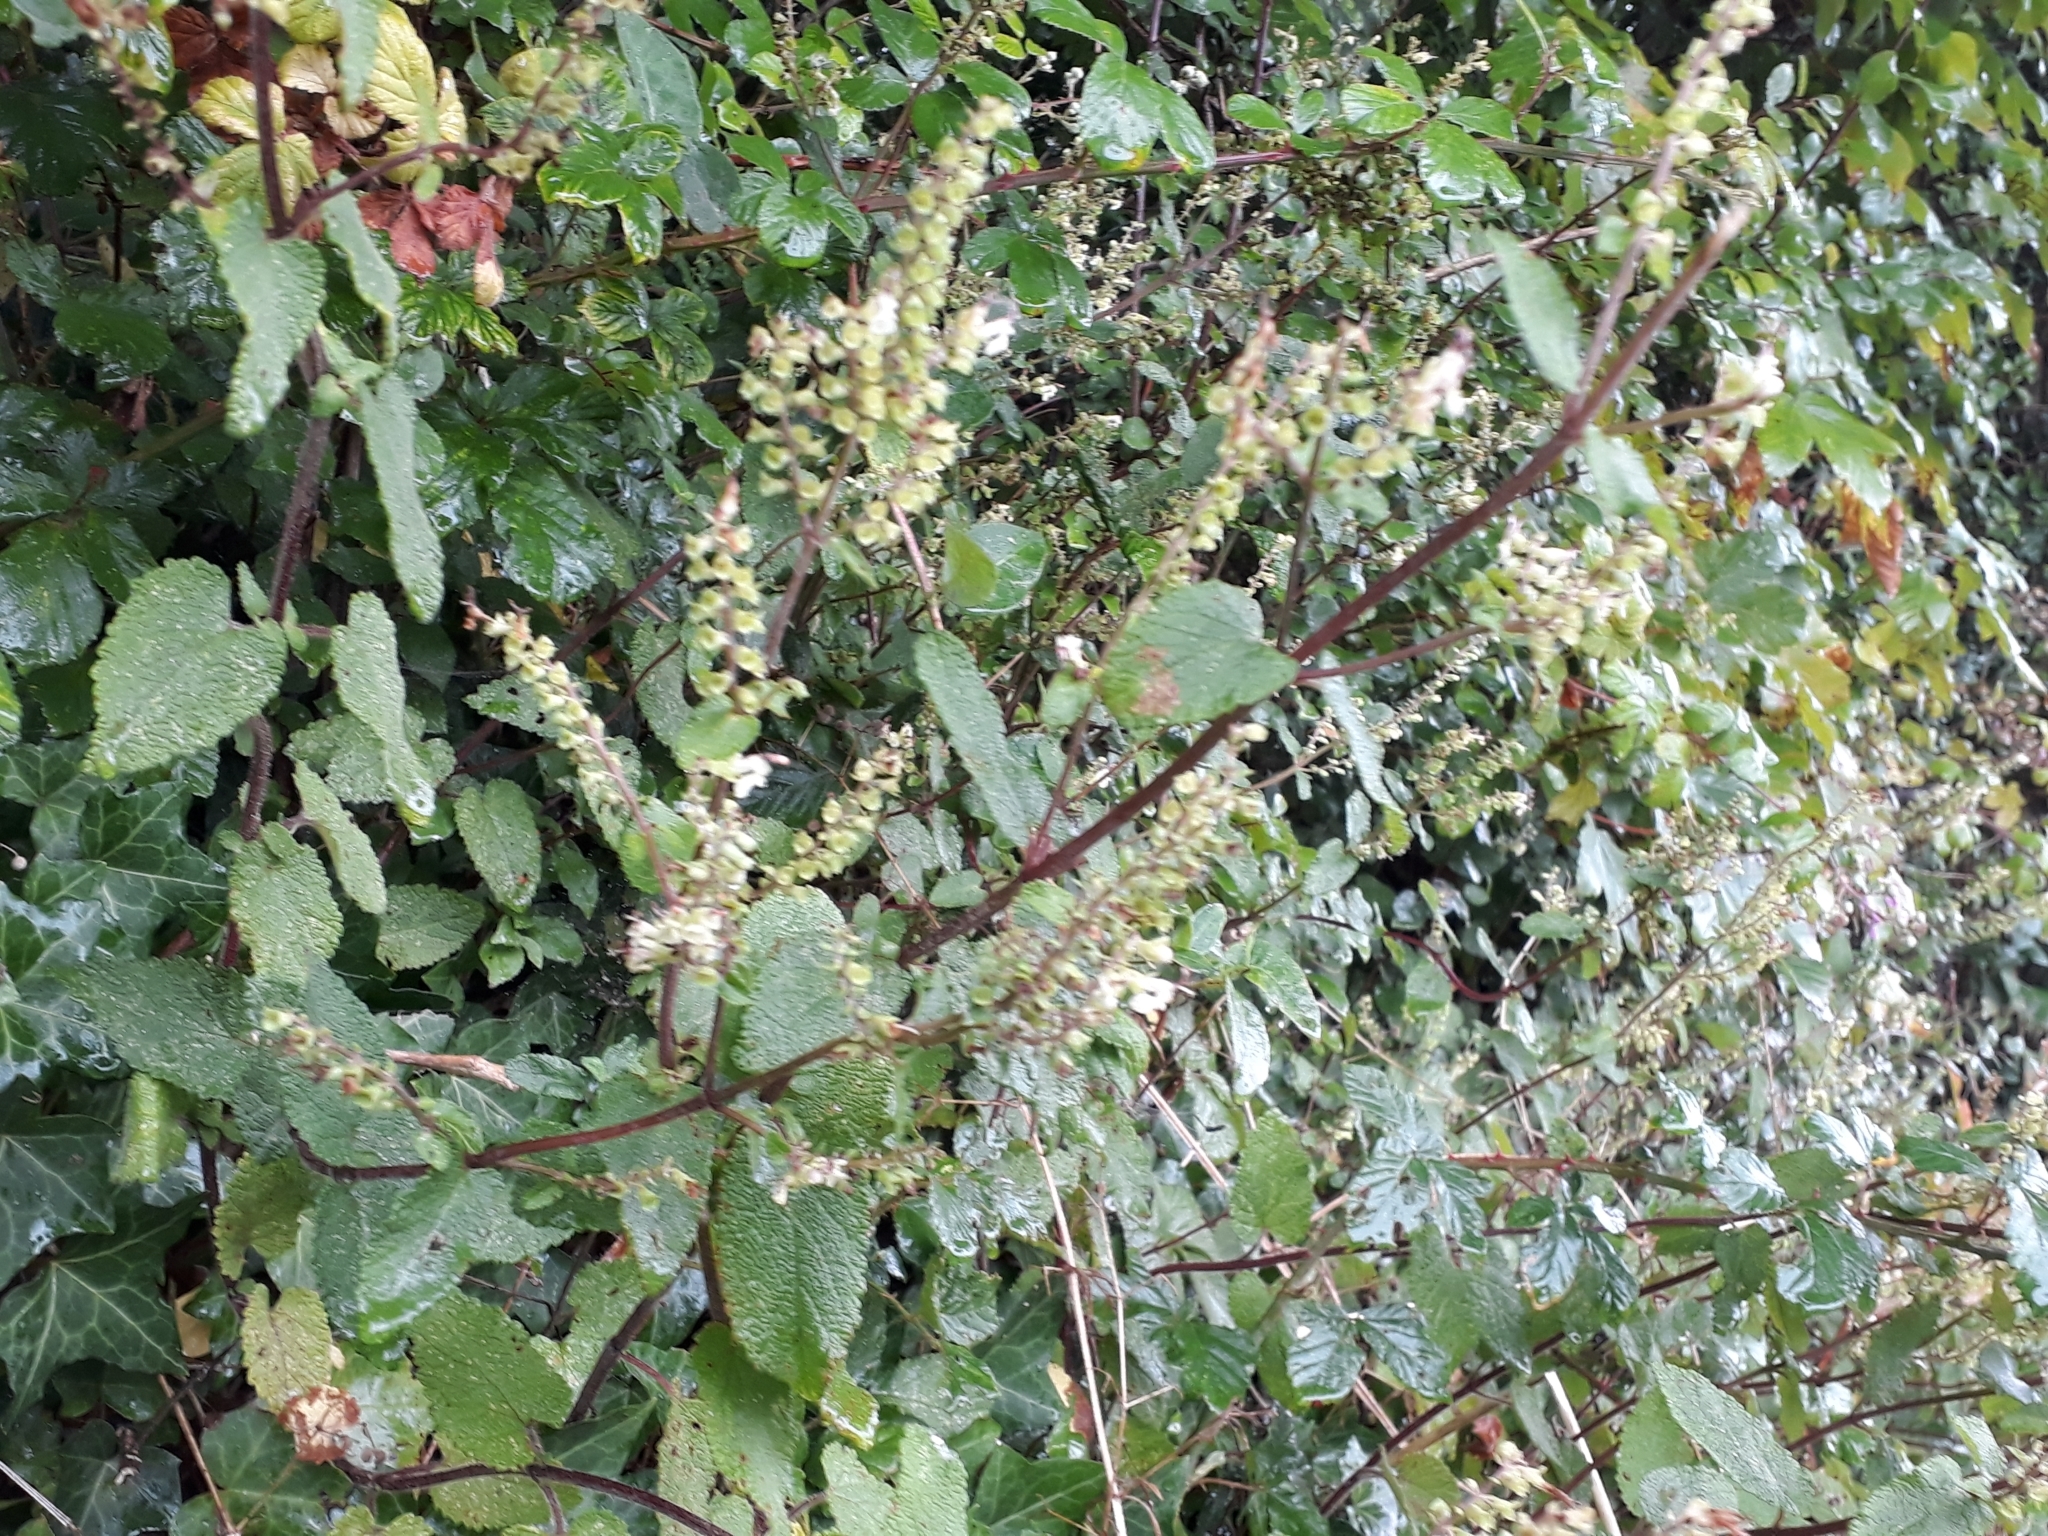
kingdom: Plantae
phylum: Tracheophyta
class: Magnoliopsida
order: Lamiales
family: Lamiaceae
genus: Teucrium
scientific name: Teucrium scorodonia
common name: Woodland germander
